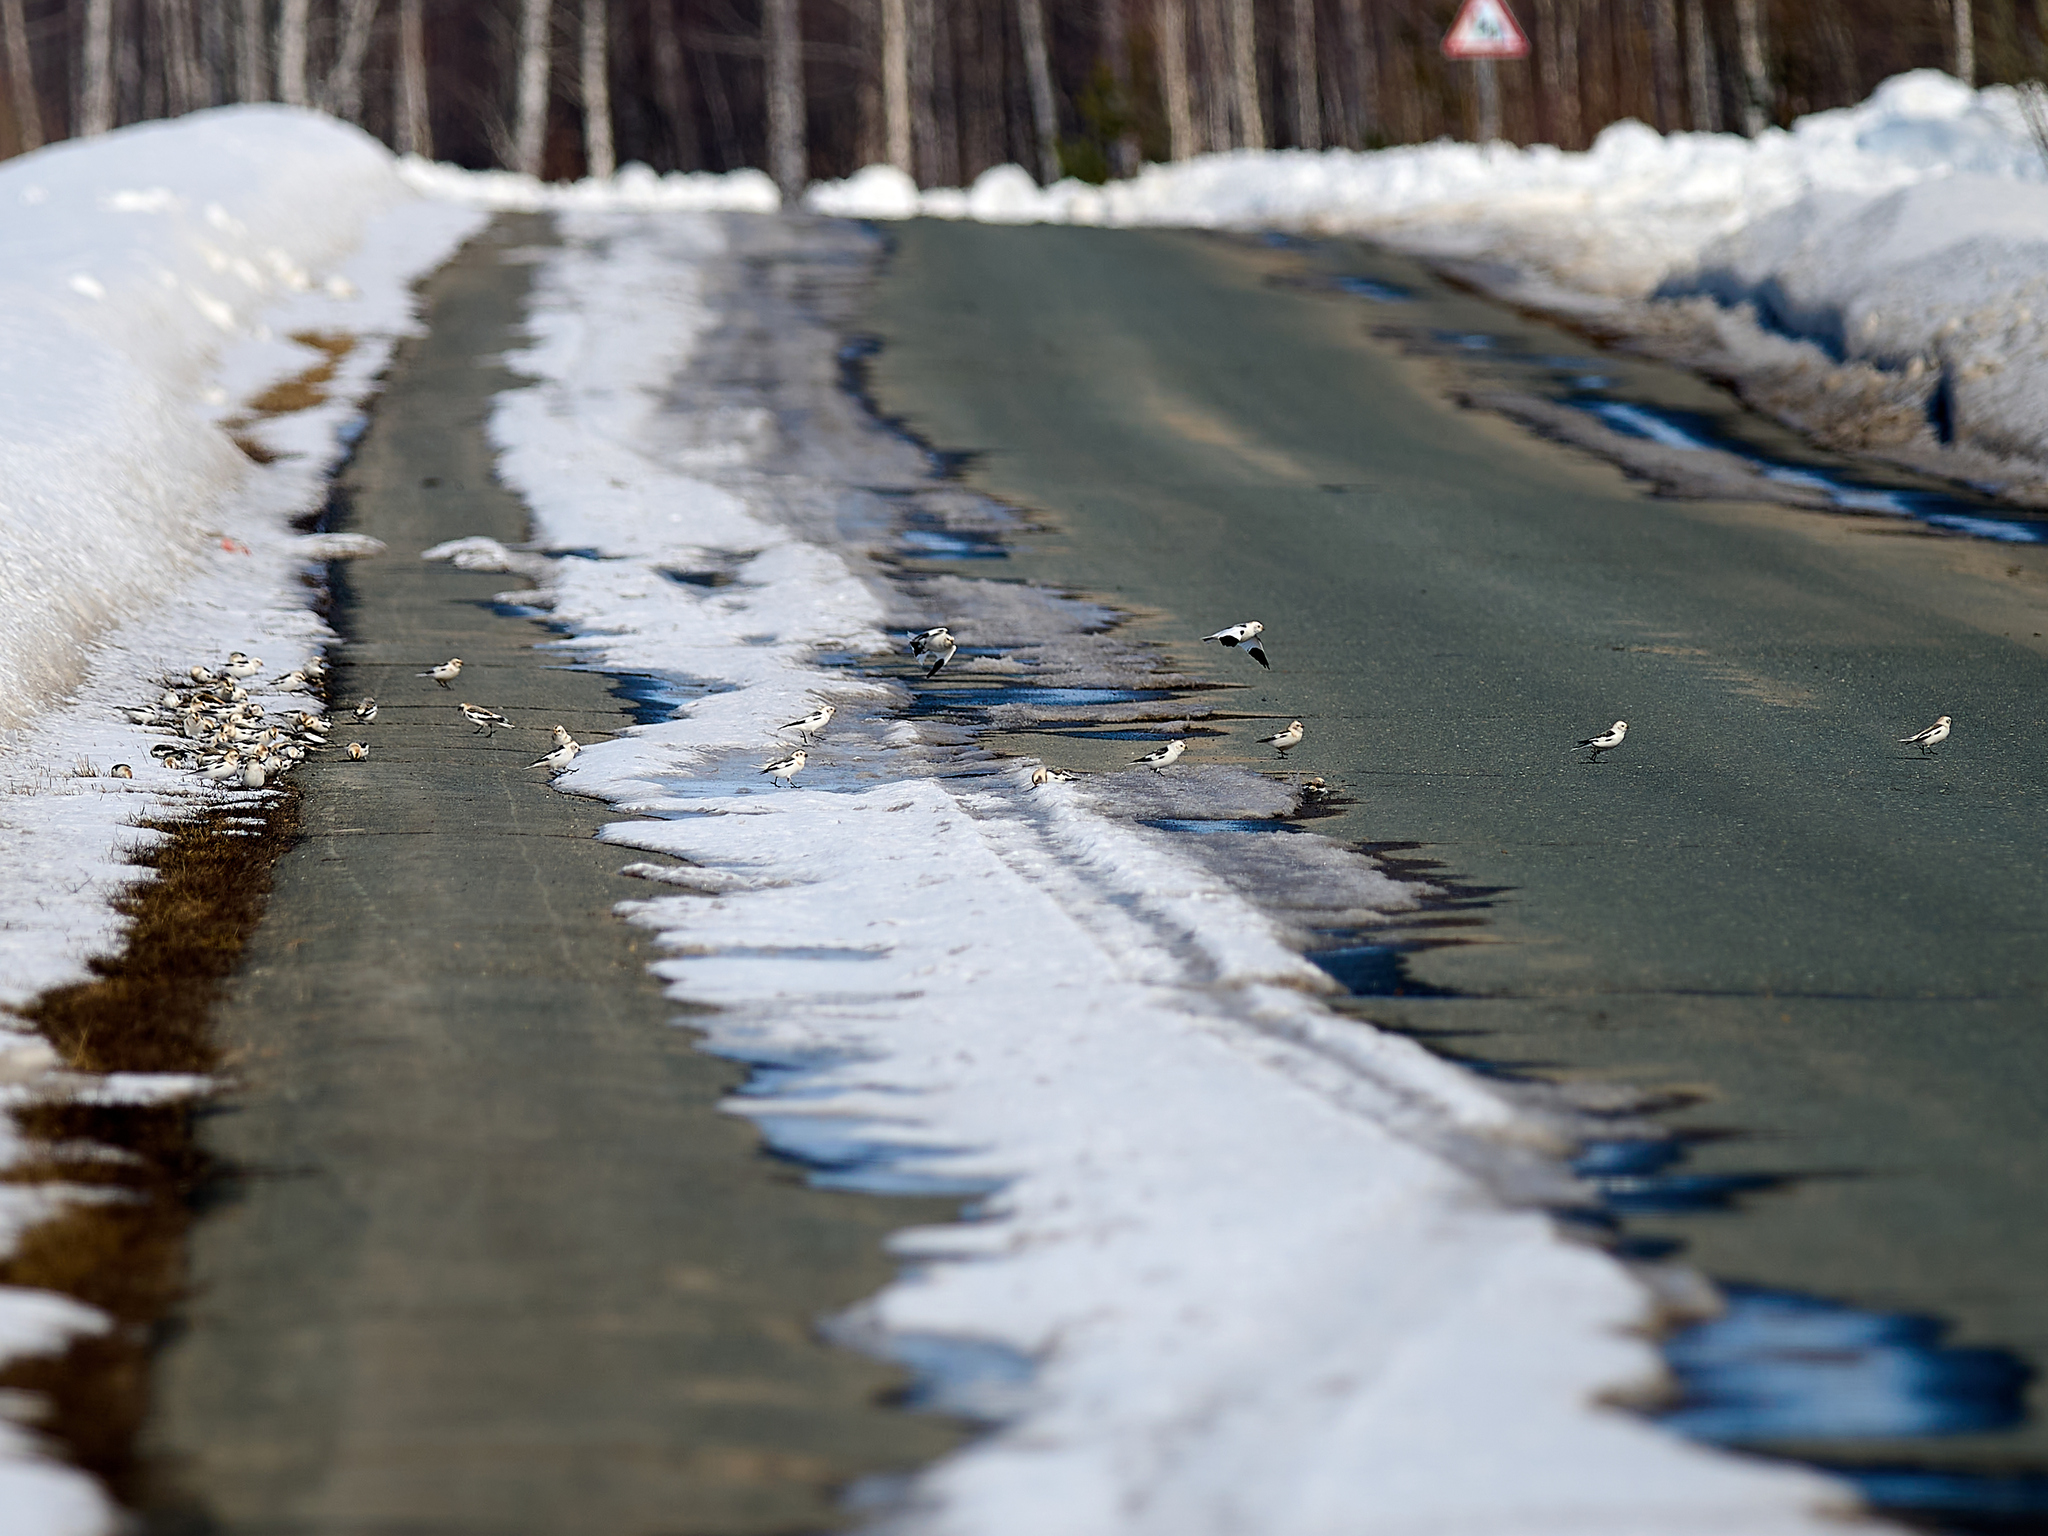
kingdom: Animalia
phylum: Chordata
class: Aves
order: Passeriformes
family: Calcariidae
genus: Plectrophenax
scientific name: Plectrophenax nivalis
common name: Snow bunting
